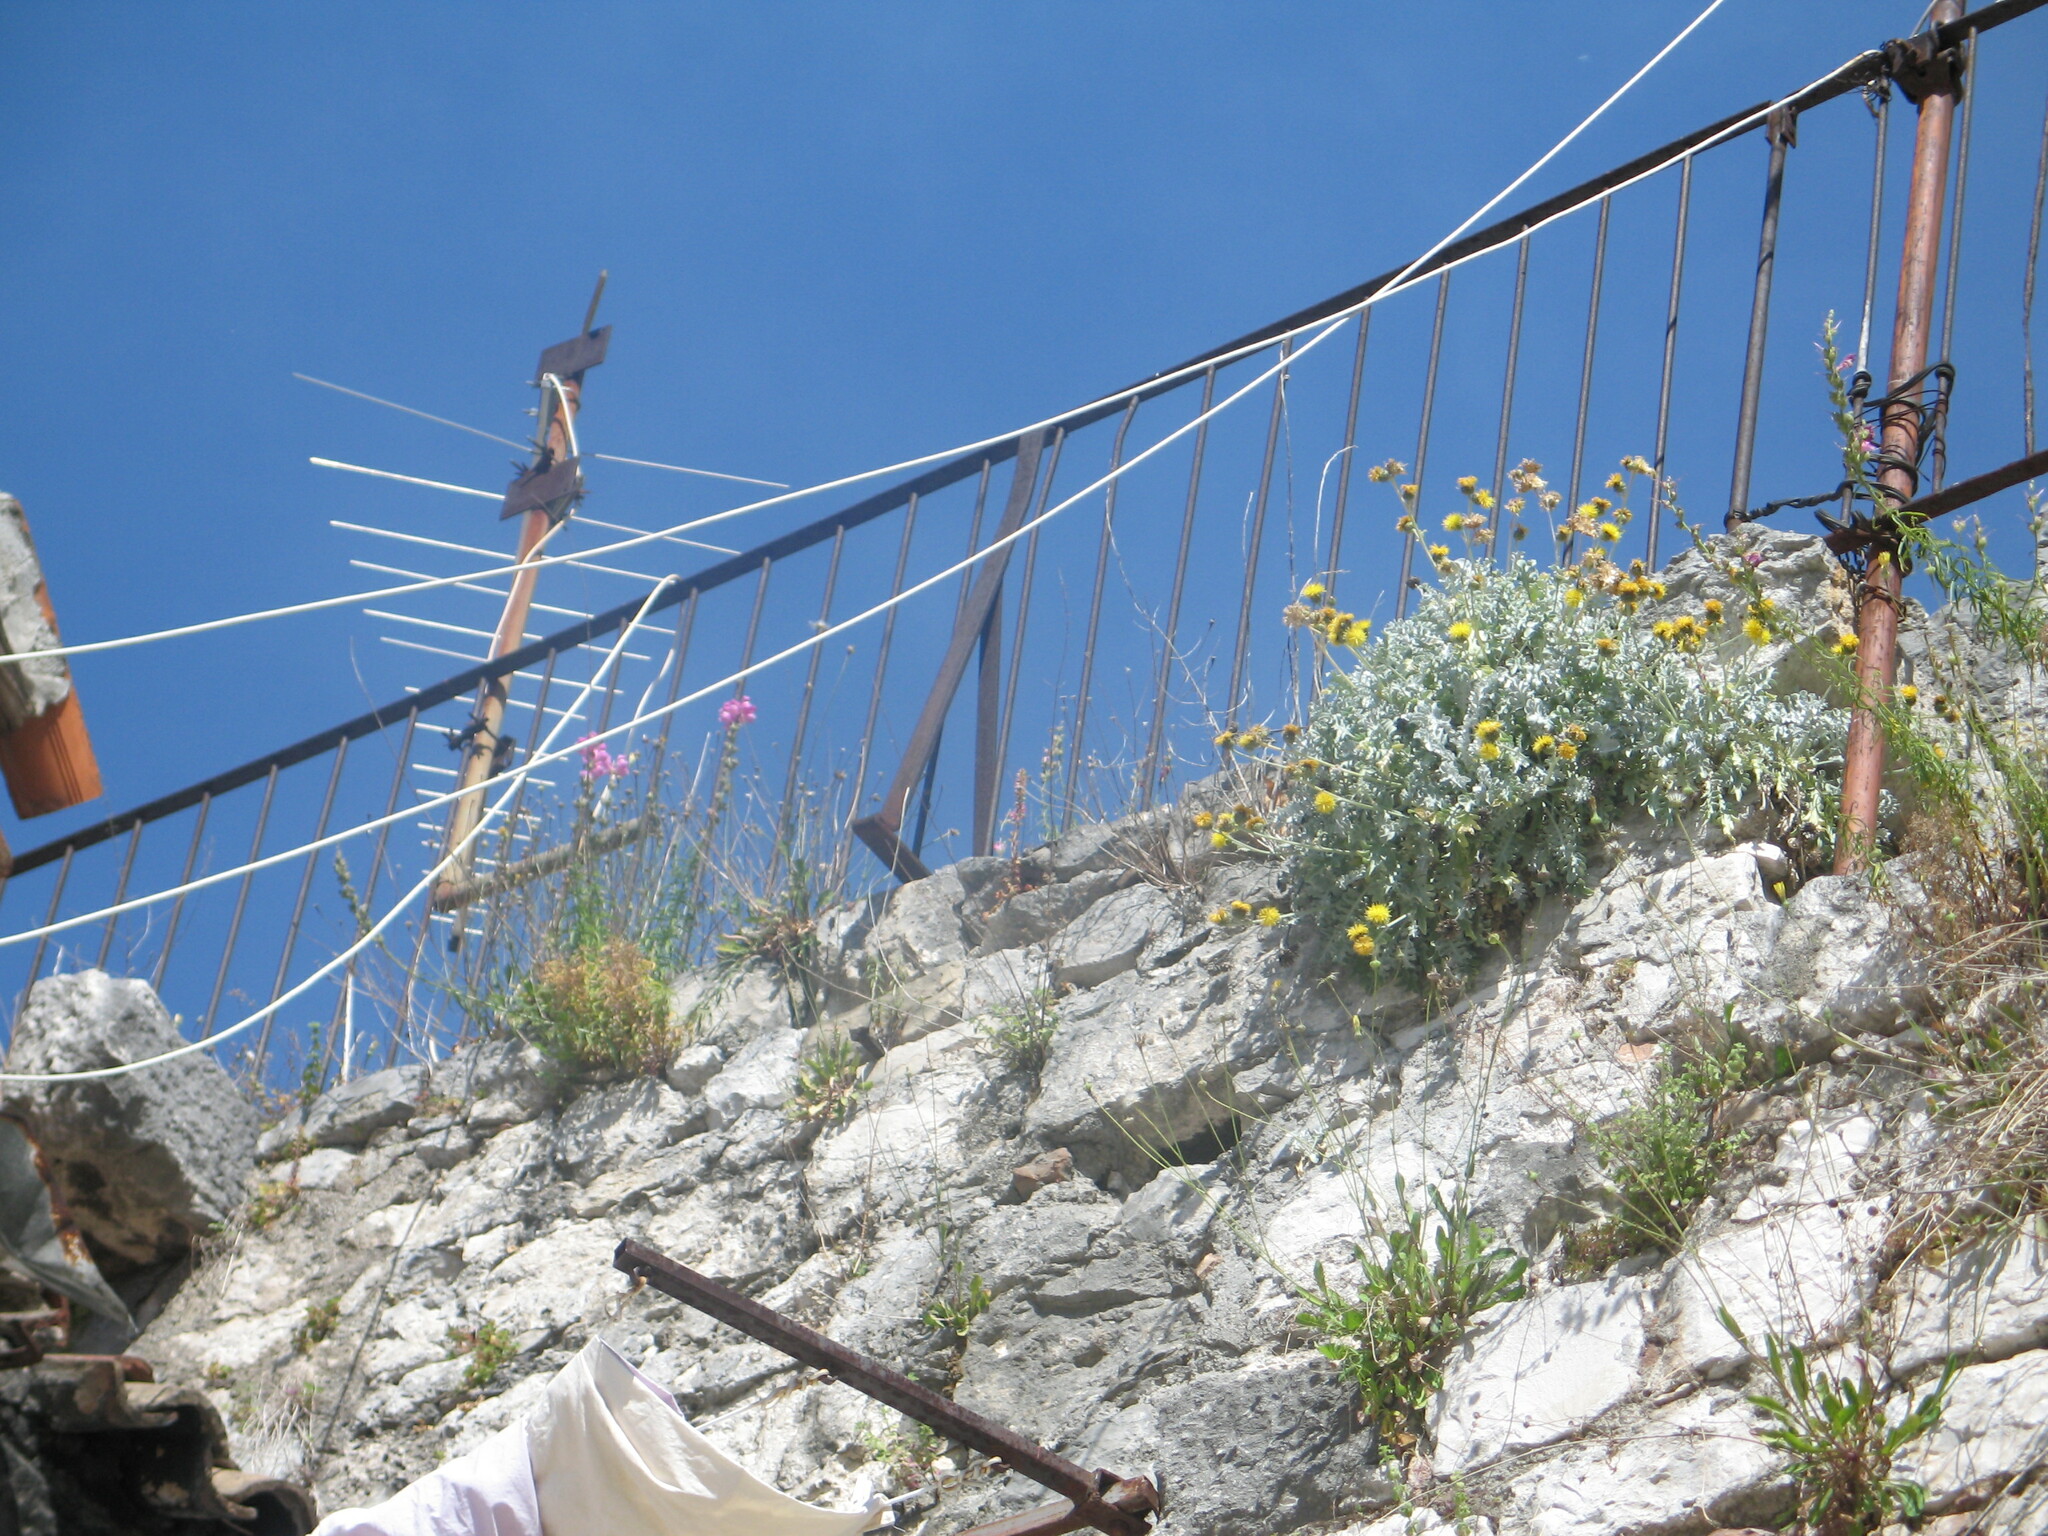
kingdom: Plantae
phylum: Tracheophyta
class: Magnoliopsida
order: Asterales
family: Asteraceae
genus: Centaurea
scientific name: Centaurea ragusina
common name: Dusty-miller
